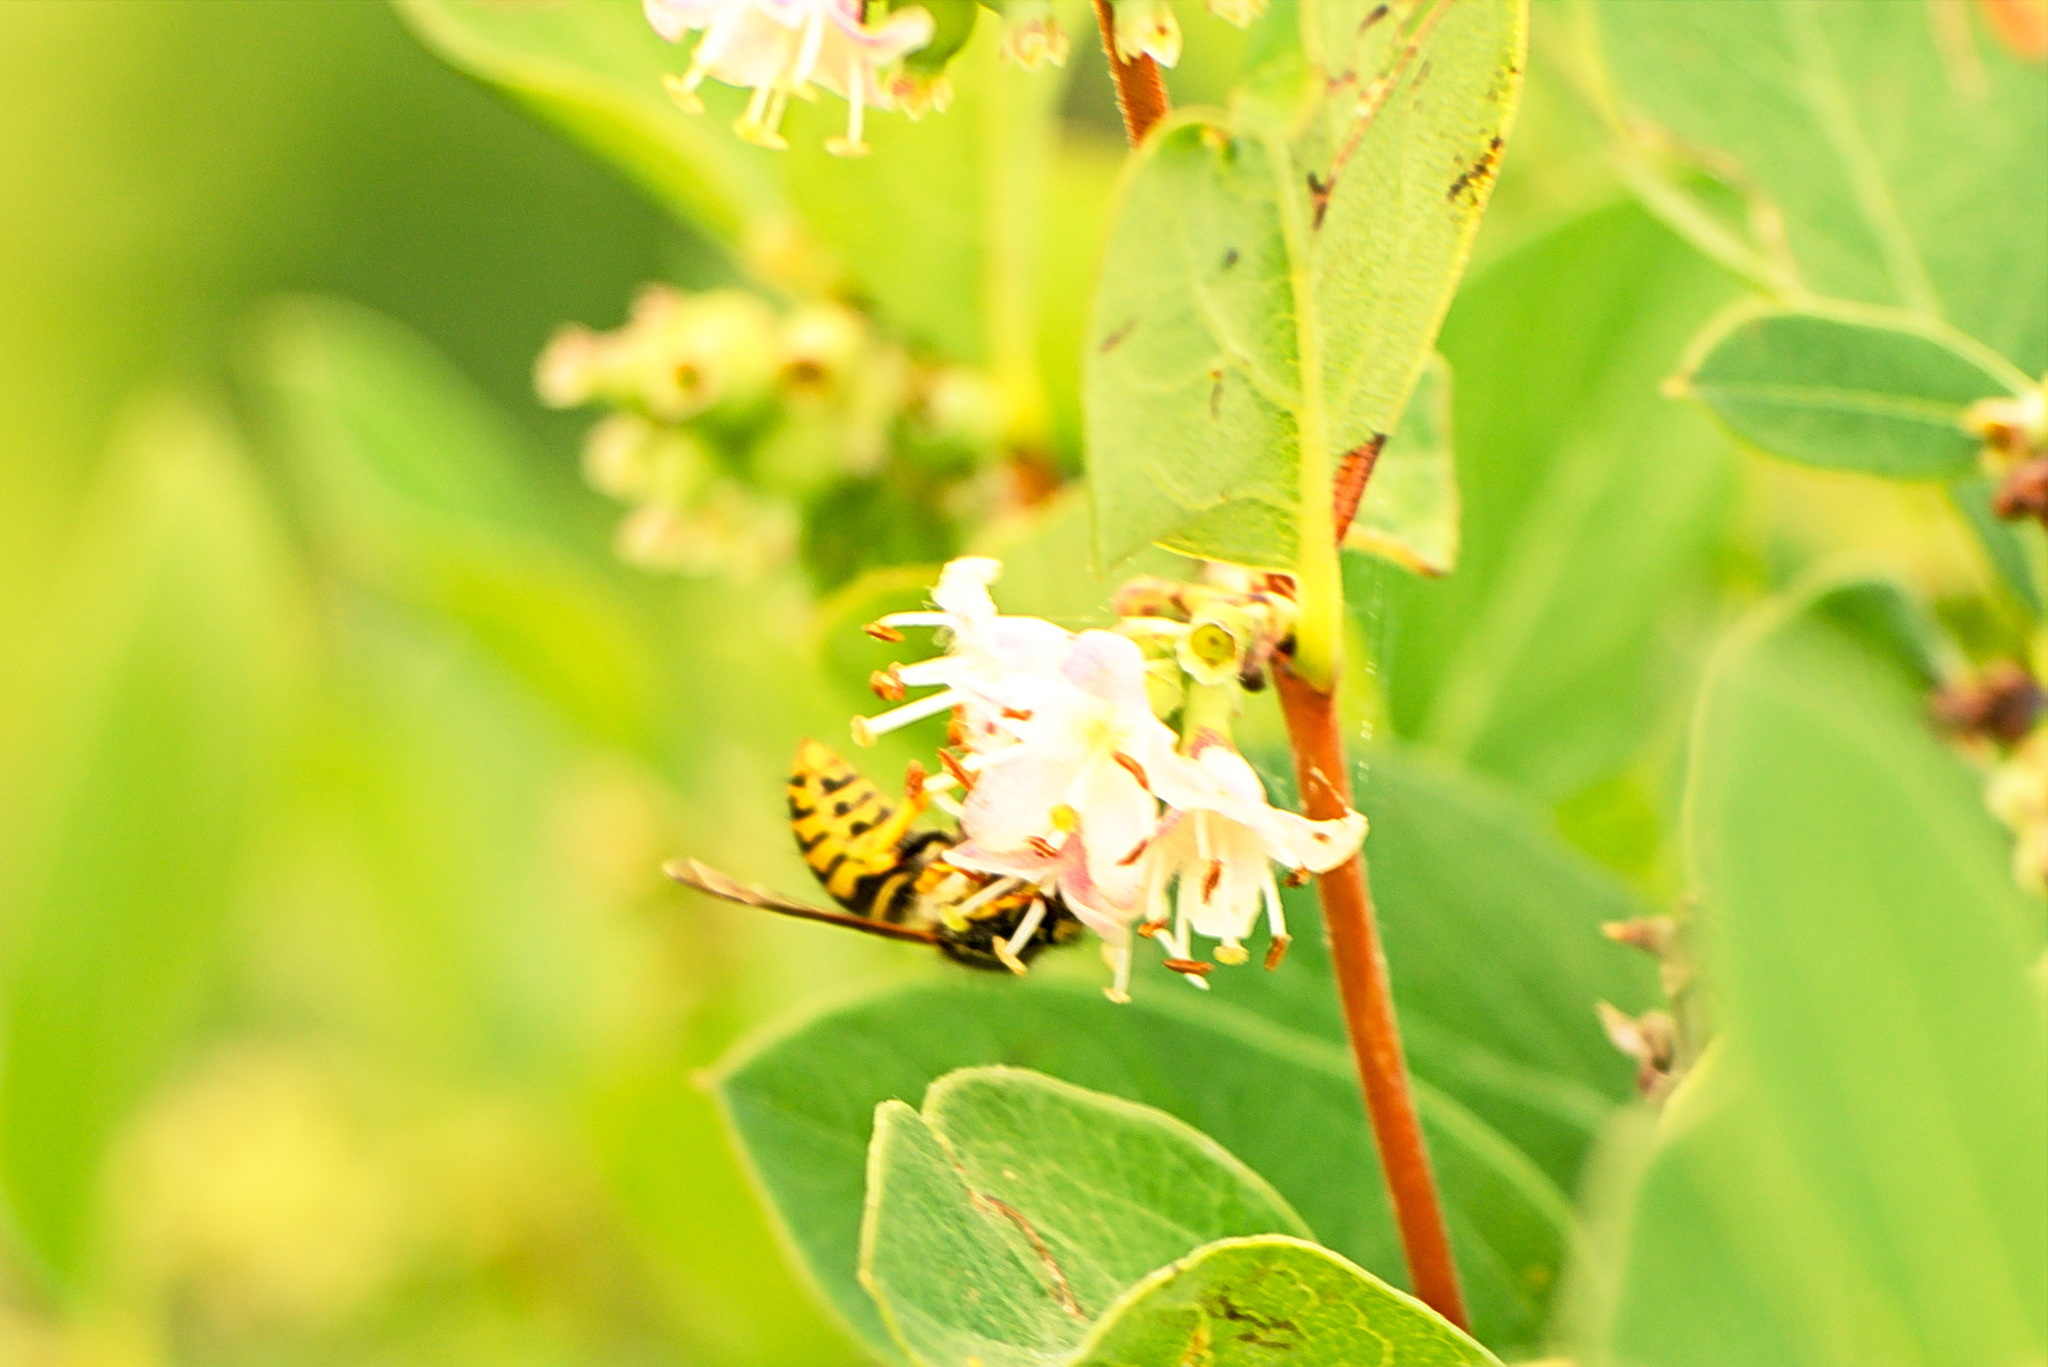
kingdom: Animalia
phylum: Arthropoda
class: Insecta
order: Hymenoptera
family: Vespidae
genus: Dolichovespula
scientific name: Dolichovespula arenaria
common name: Aerial yellowjacket
